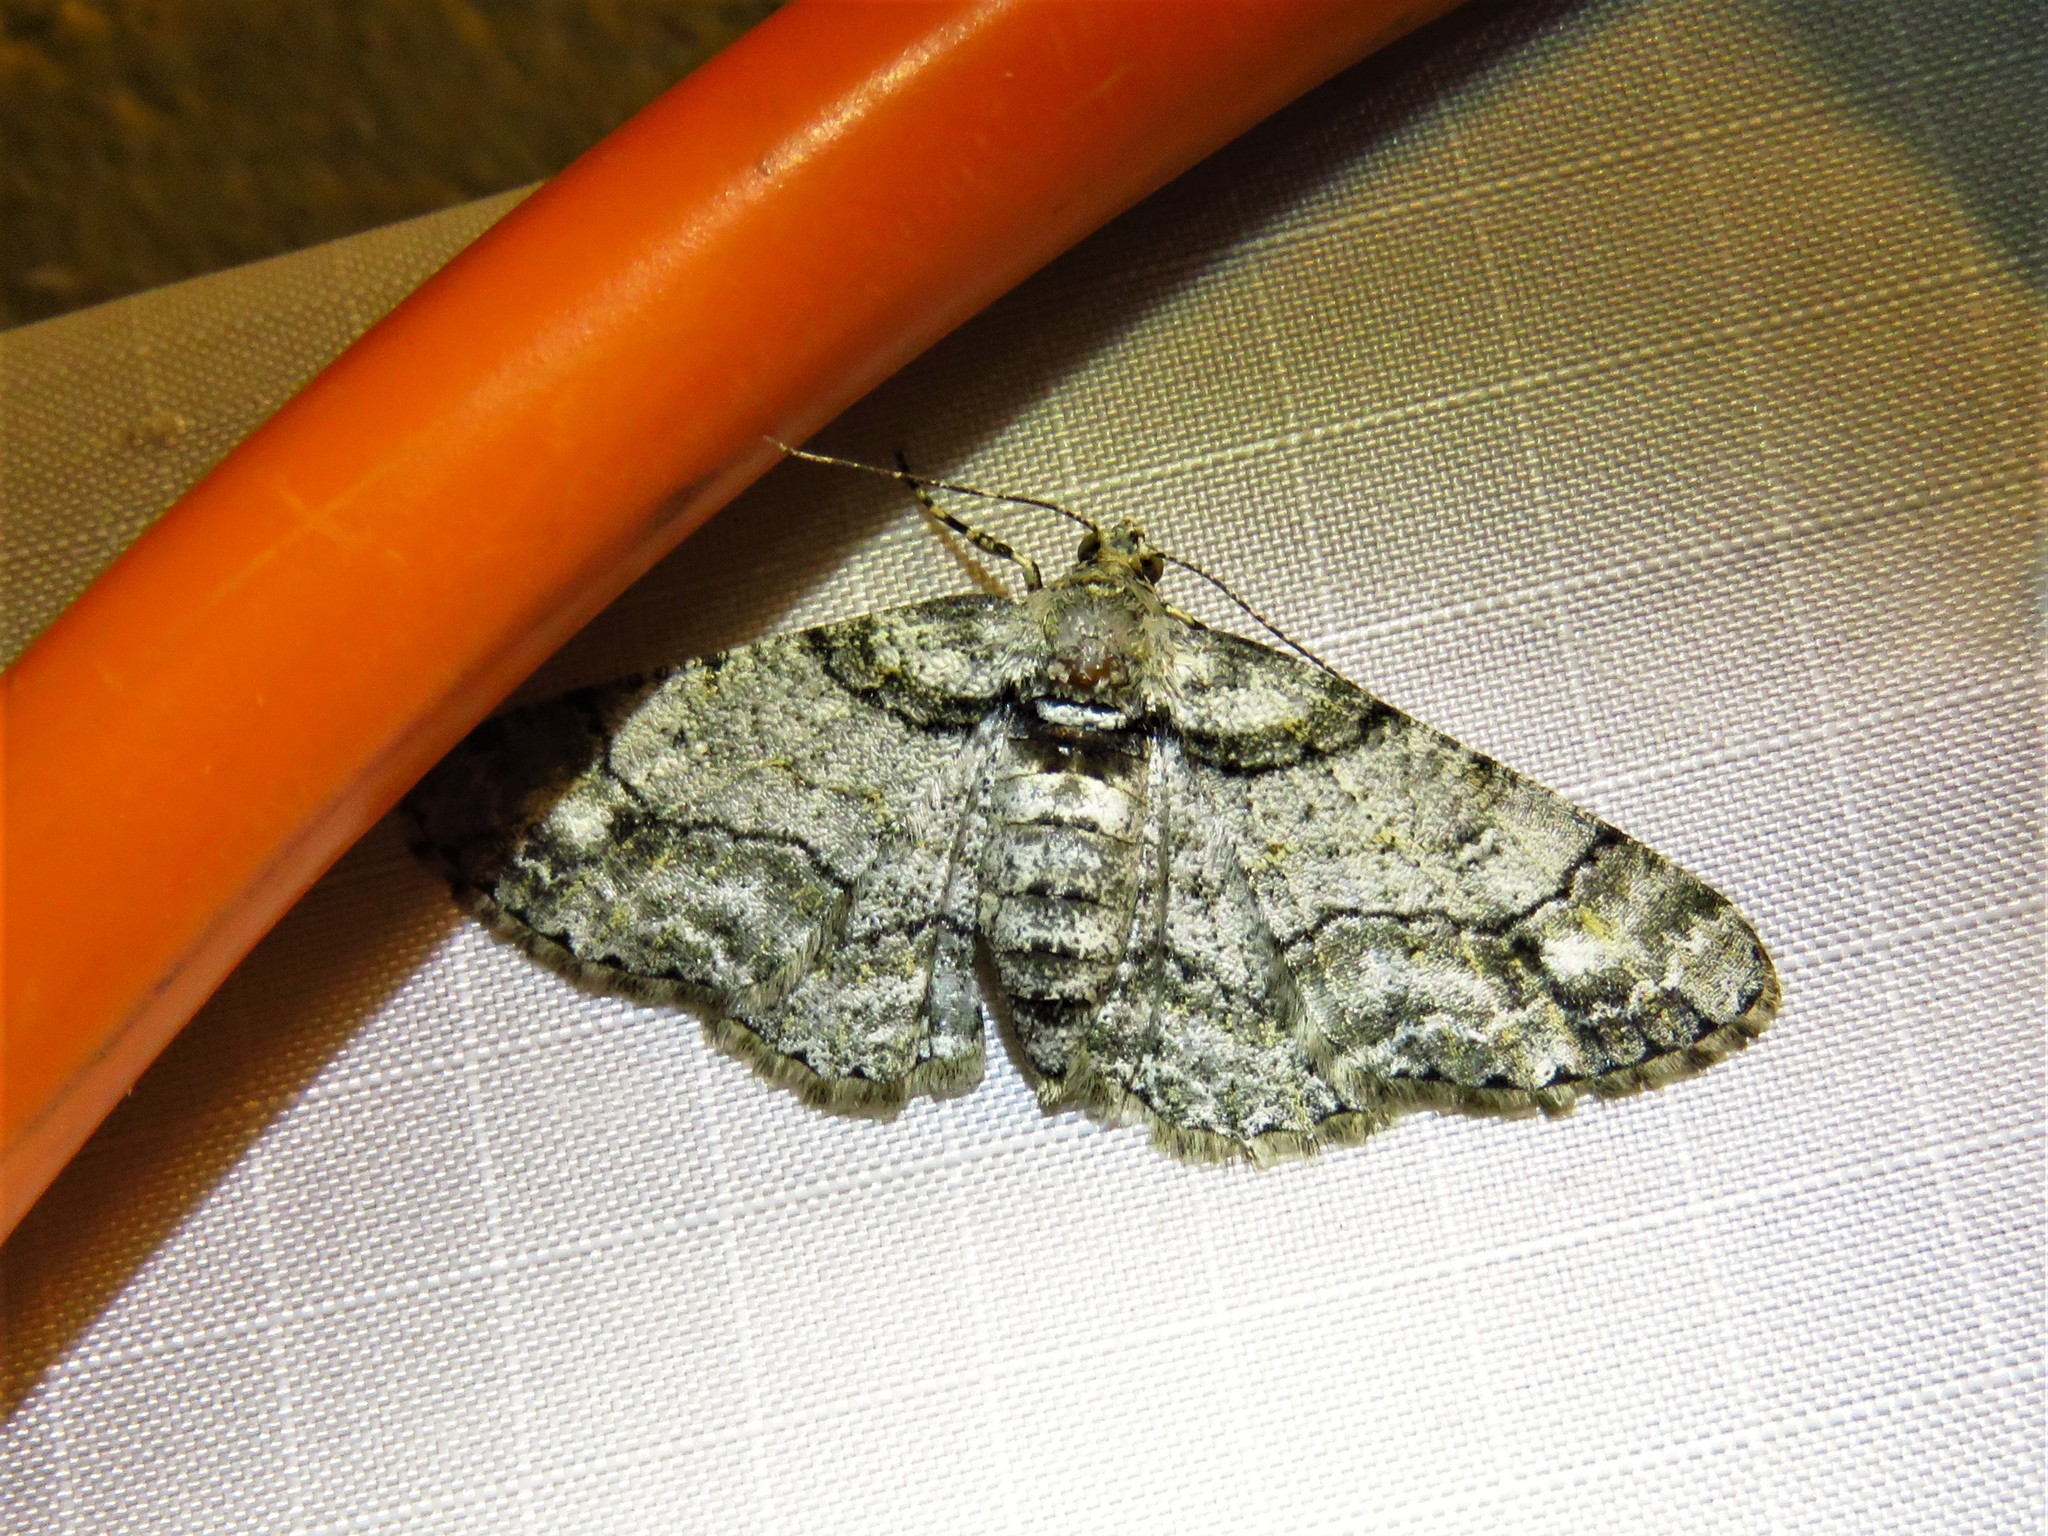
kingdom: Animalia
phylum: Arthropoda
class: Insecta
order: Lepidoptera
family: Geometridae
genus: Cleora
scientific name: Cleora sublunaria
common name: Double-lined gray
